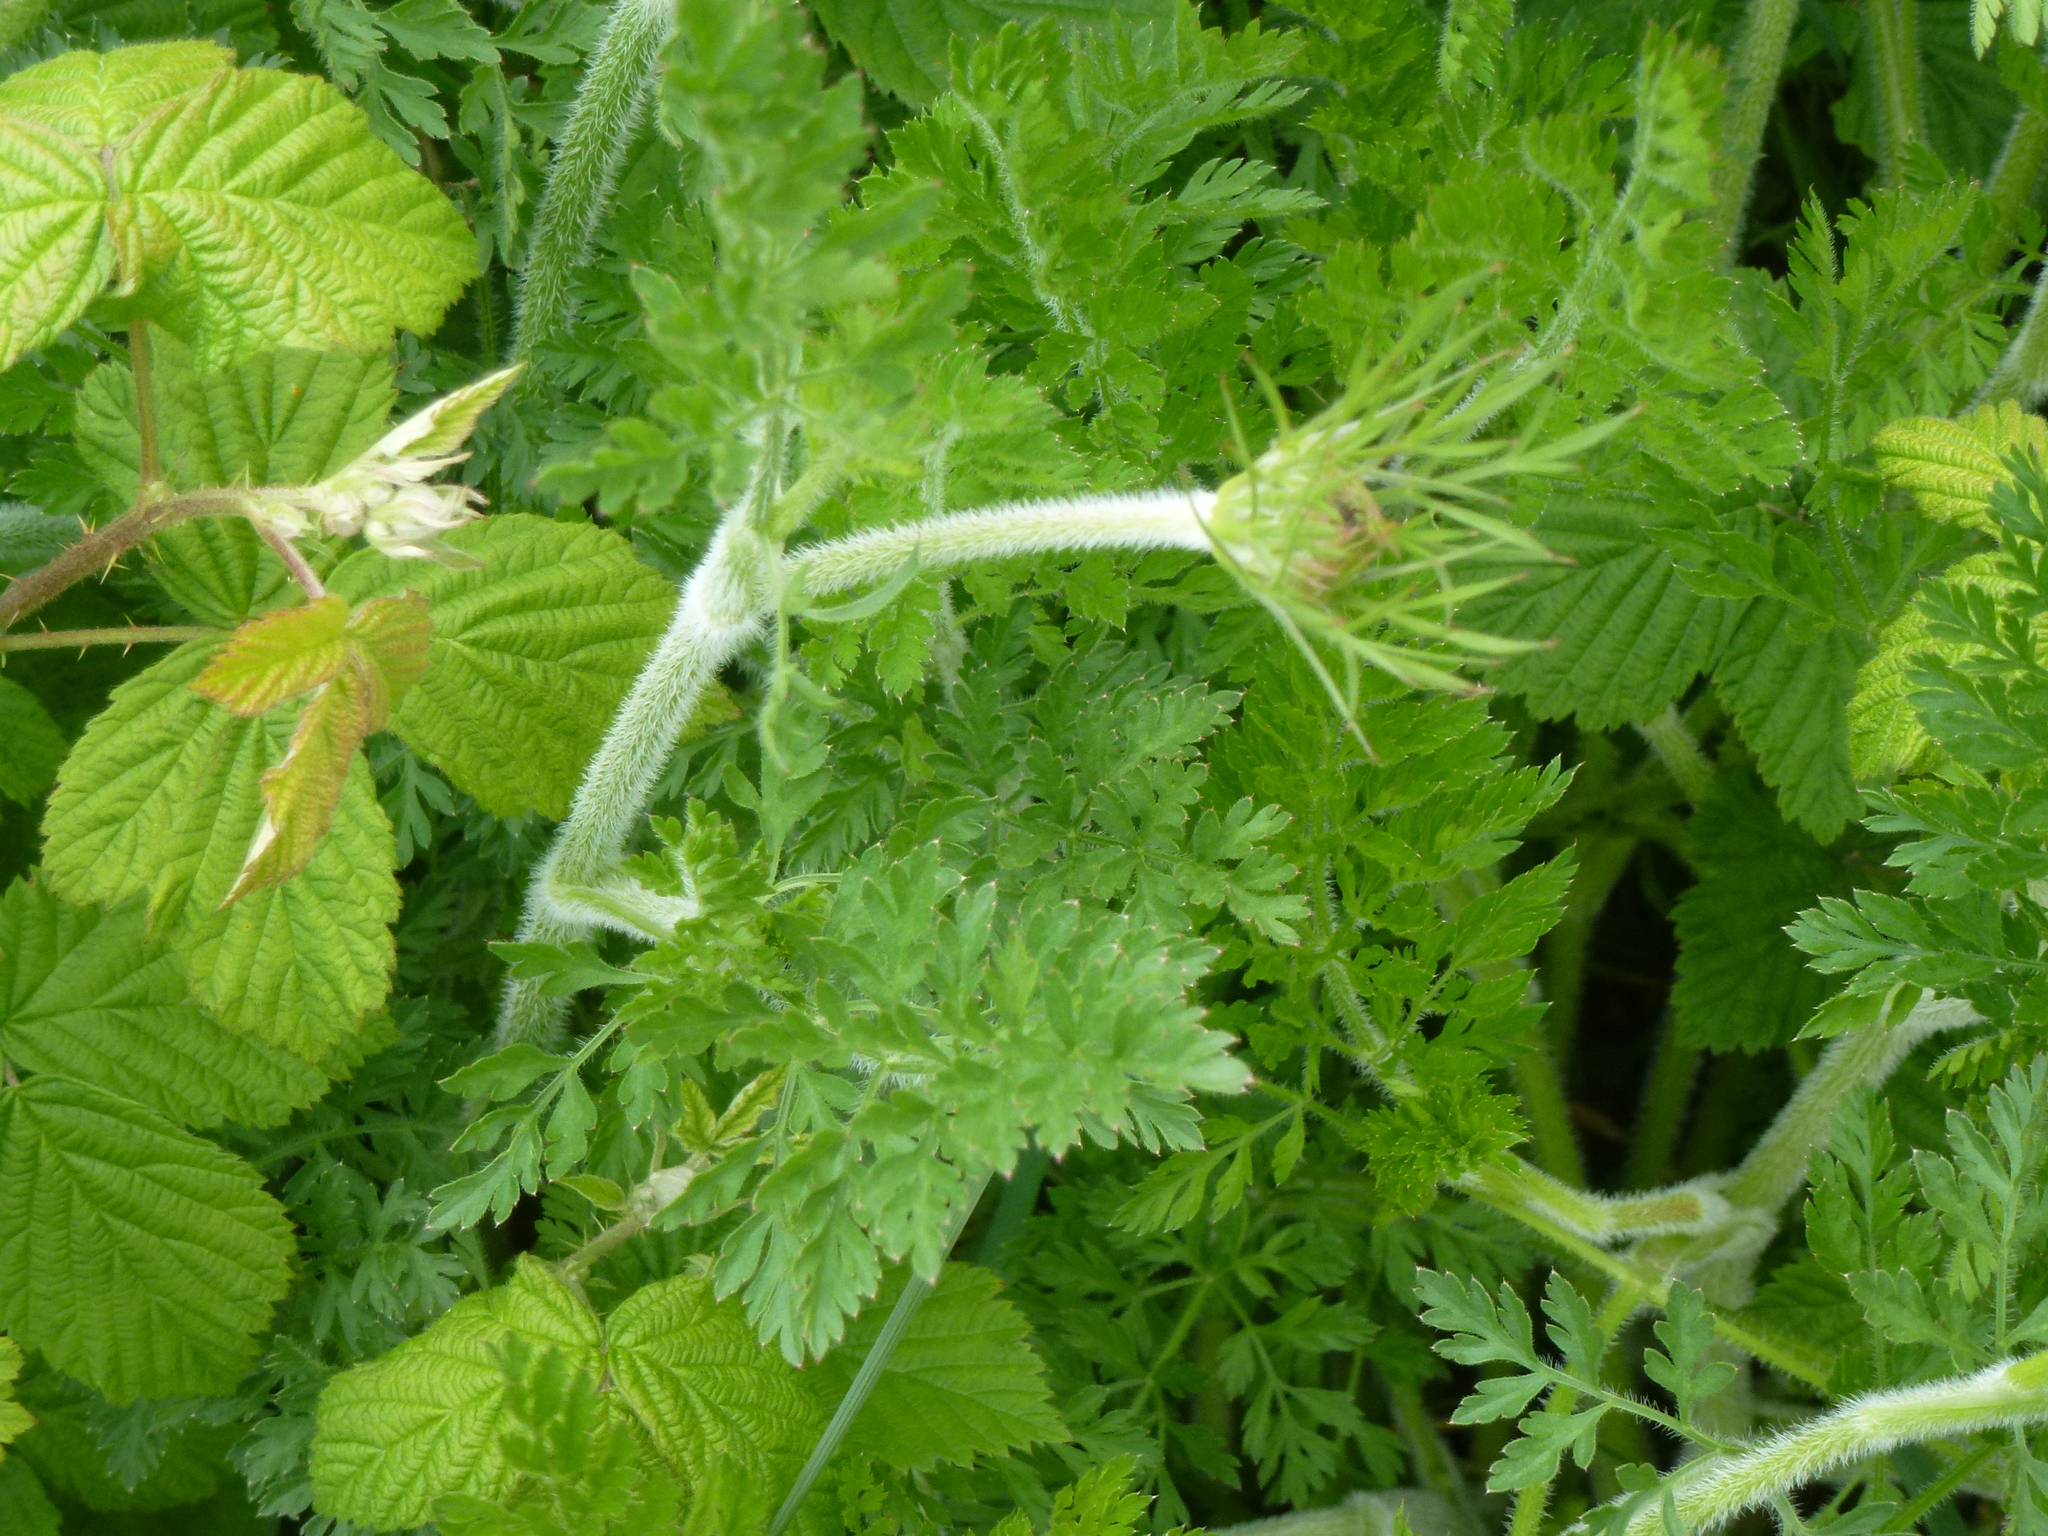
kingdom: Plantae
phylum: Tracheophyta
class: Magnoliopsida
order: Apiales
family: Apiaceae
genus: Daucus
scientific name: Daucus carota
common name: Wild carrot
